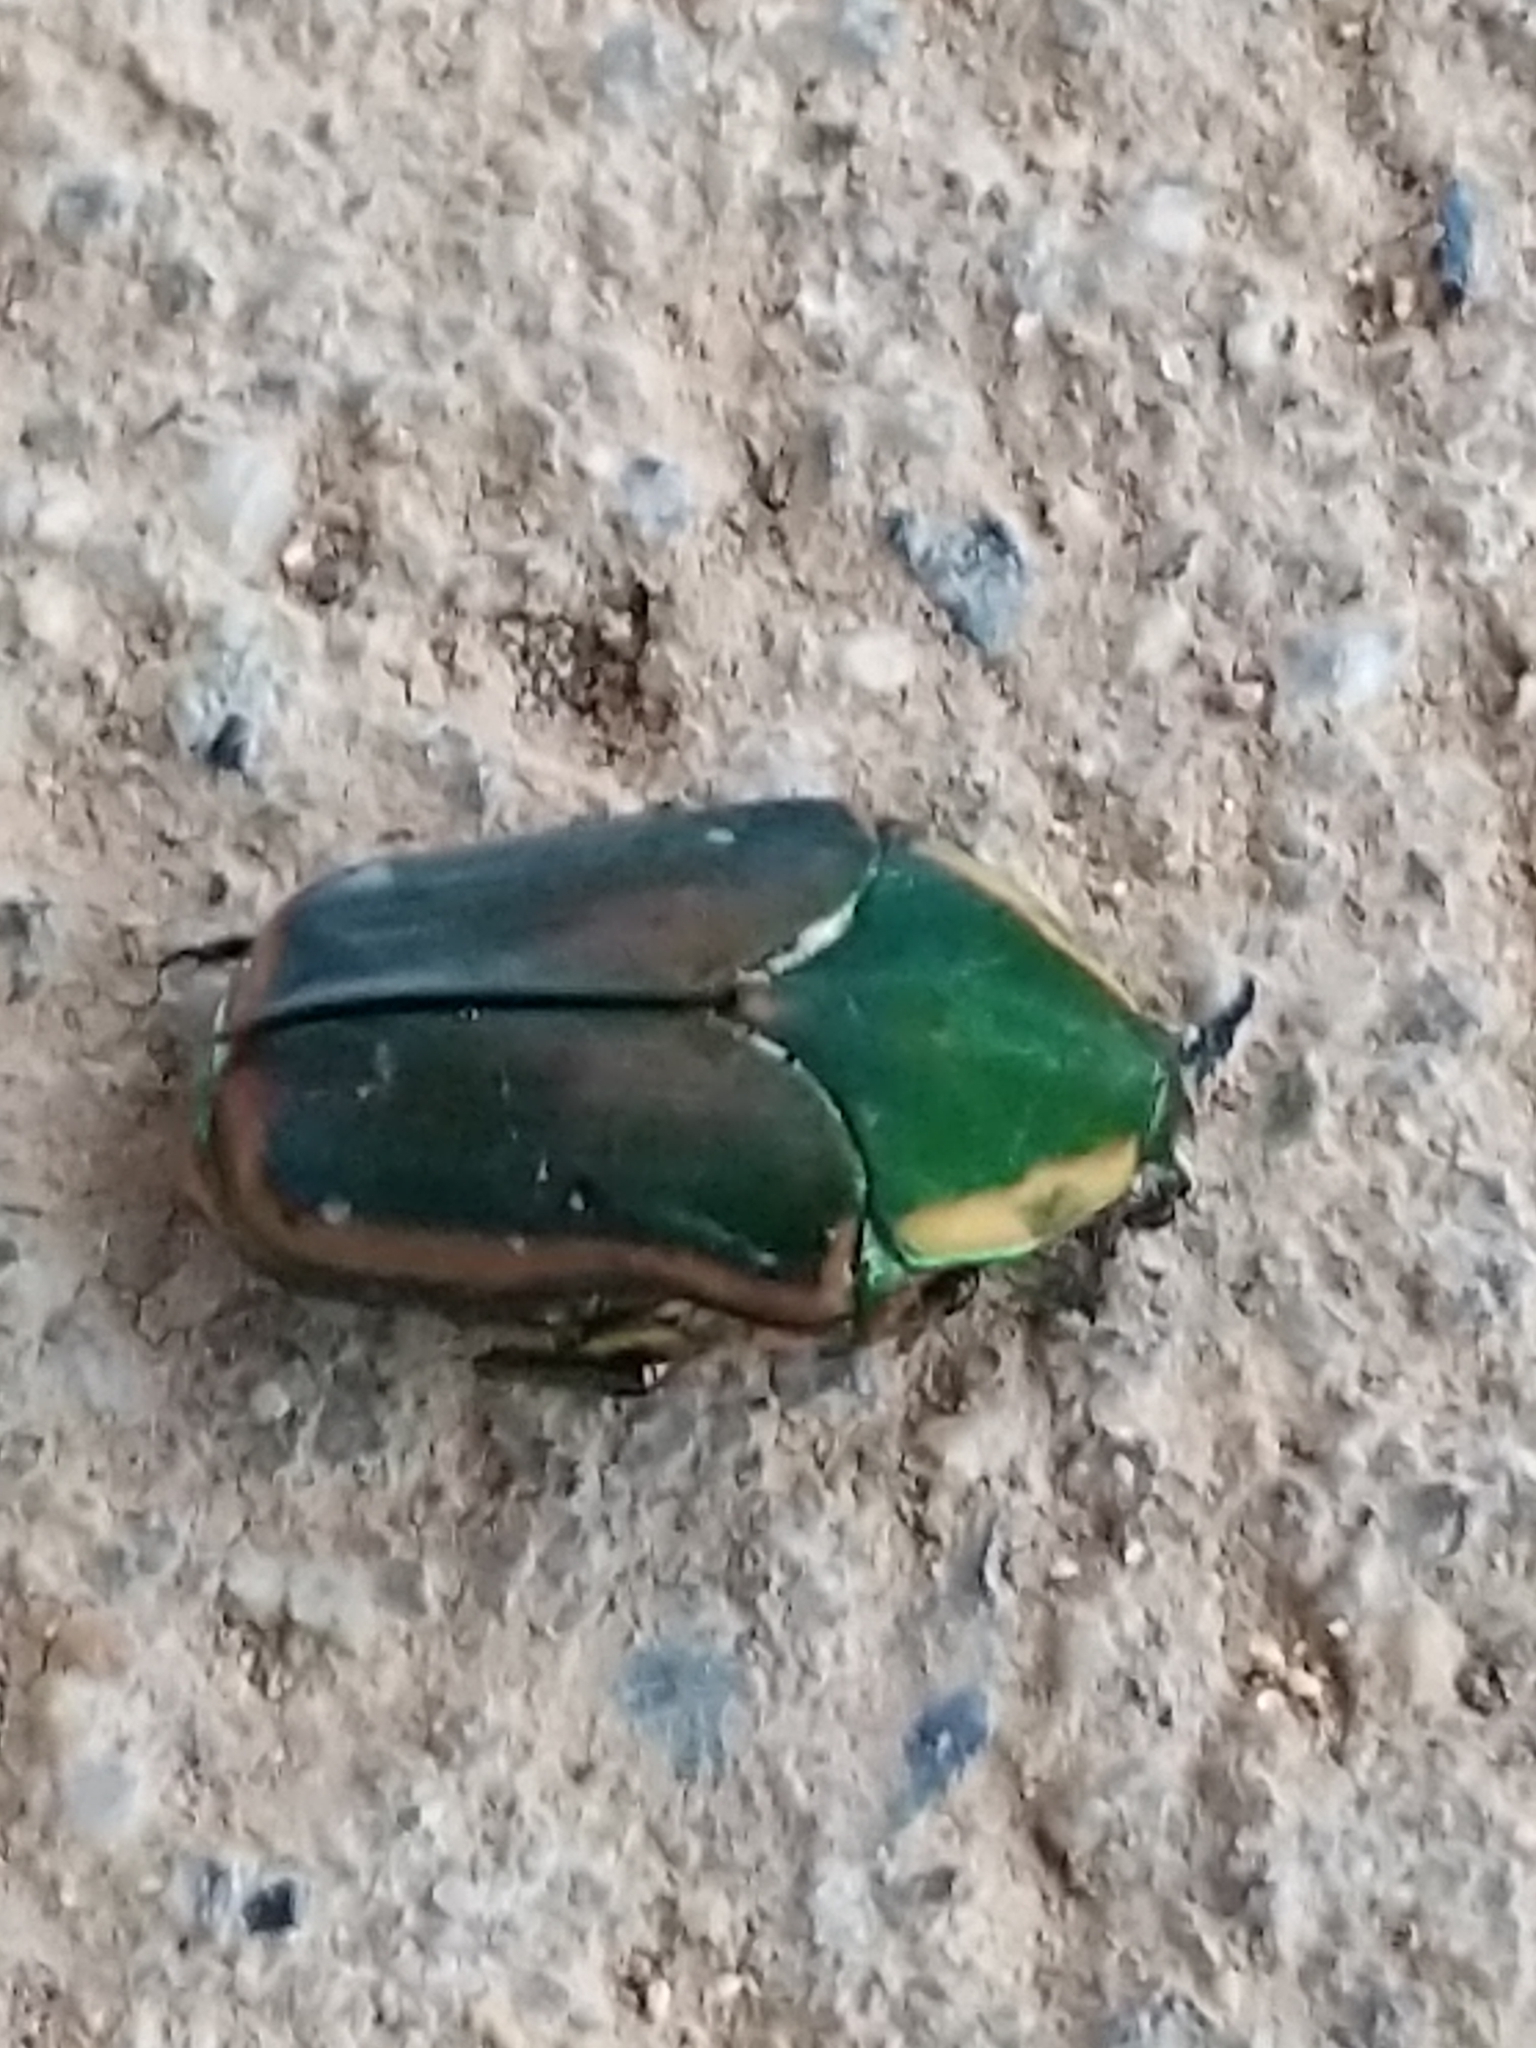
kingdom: Animalia
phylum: Arthropoda
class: Insecta
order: Coleoptera
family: Scarabaeidae
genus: Cotinis
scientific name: Cotinis nitida
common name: Common green june beetle
